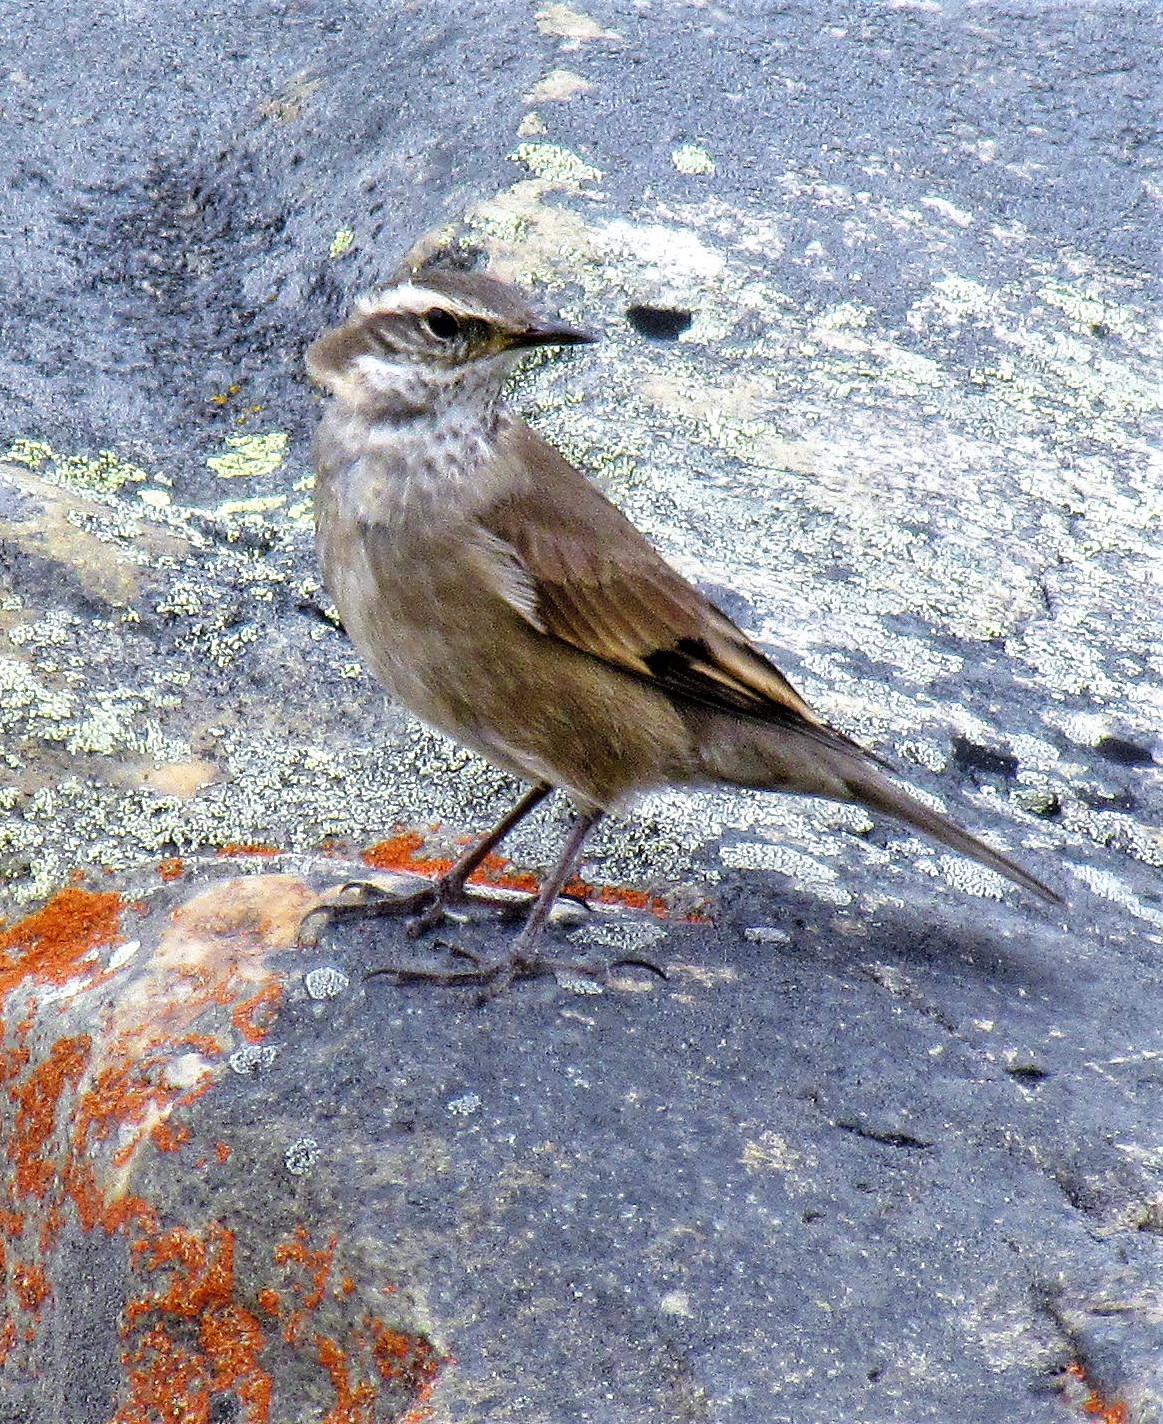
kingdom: Animalia
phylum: Chordata
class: Aves
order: Passeriformes
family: Furnariidae
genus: Cinclodes
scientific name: Cinclodes fuscus
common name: Buff-winged cinclodes
